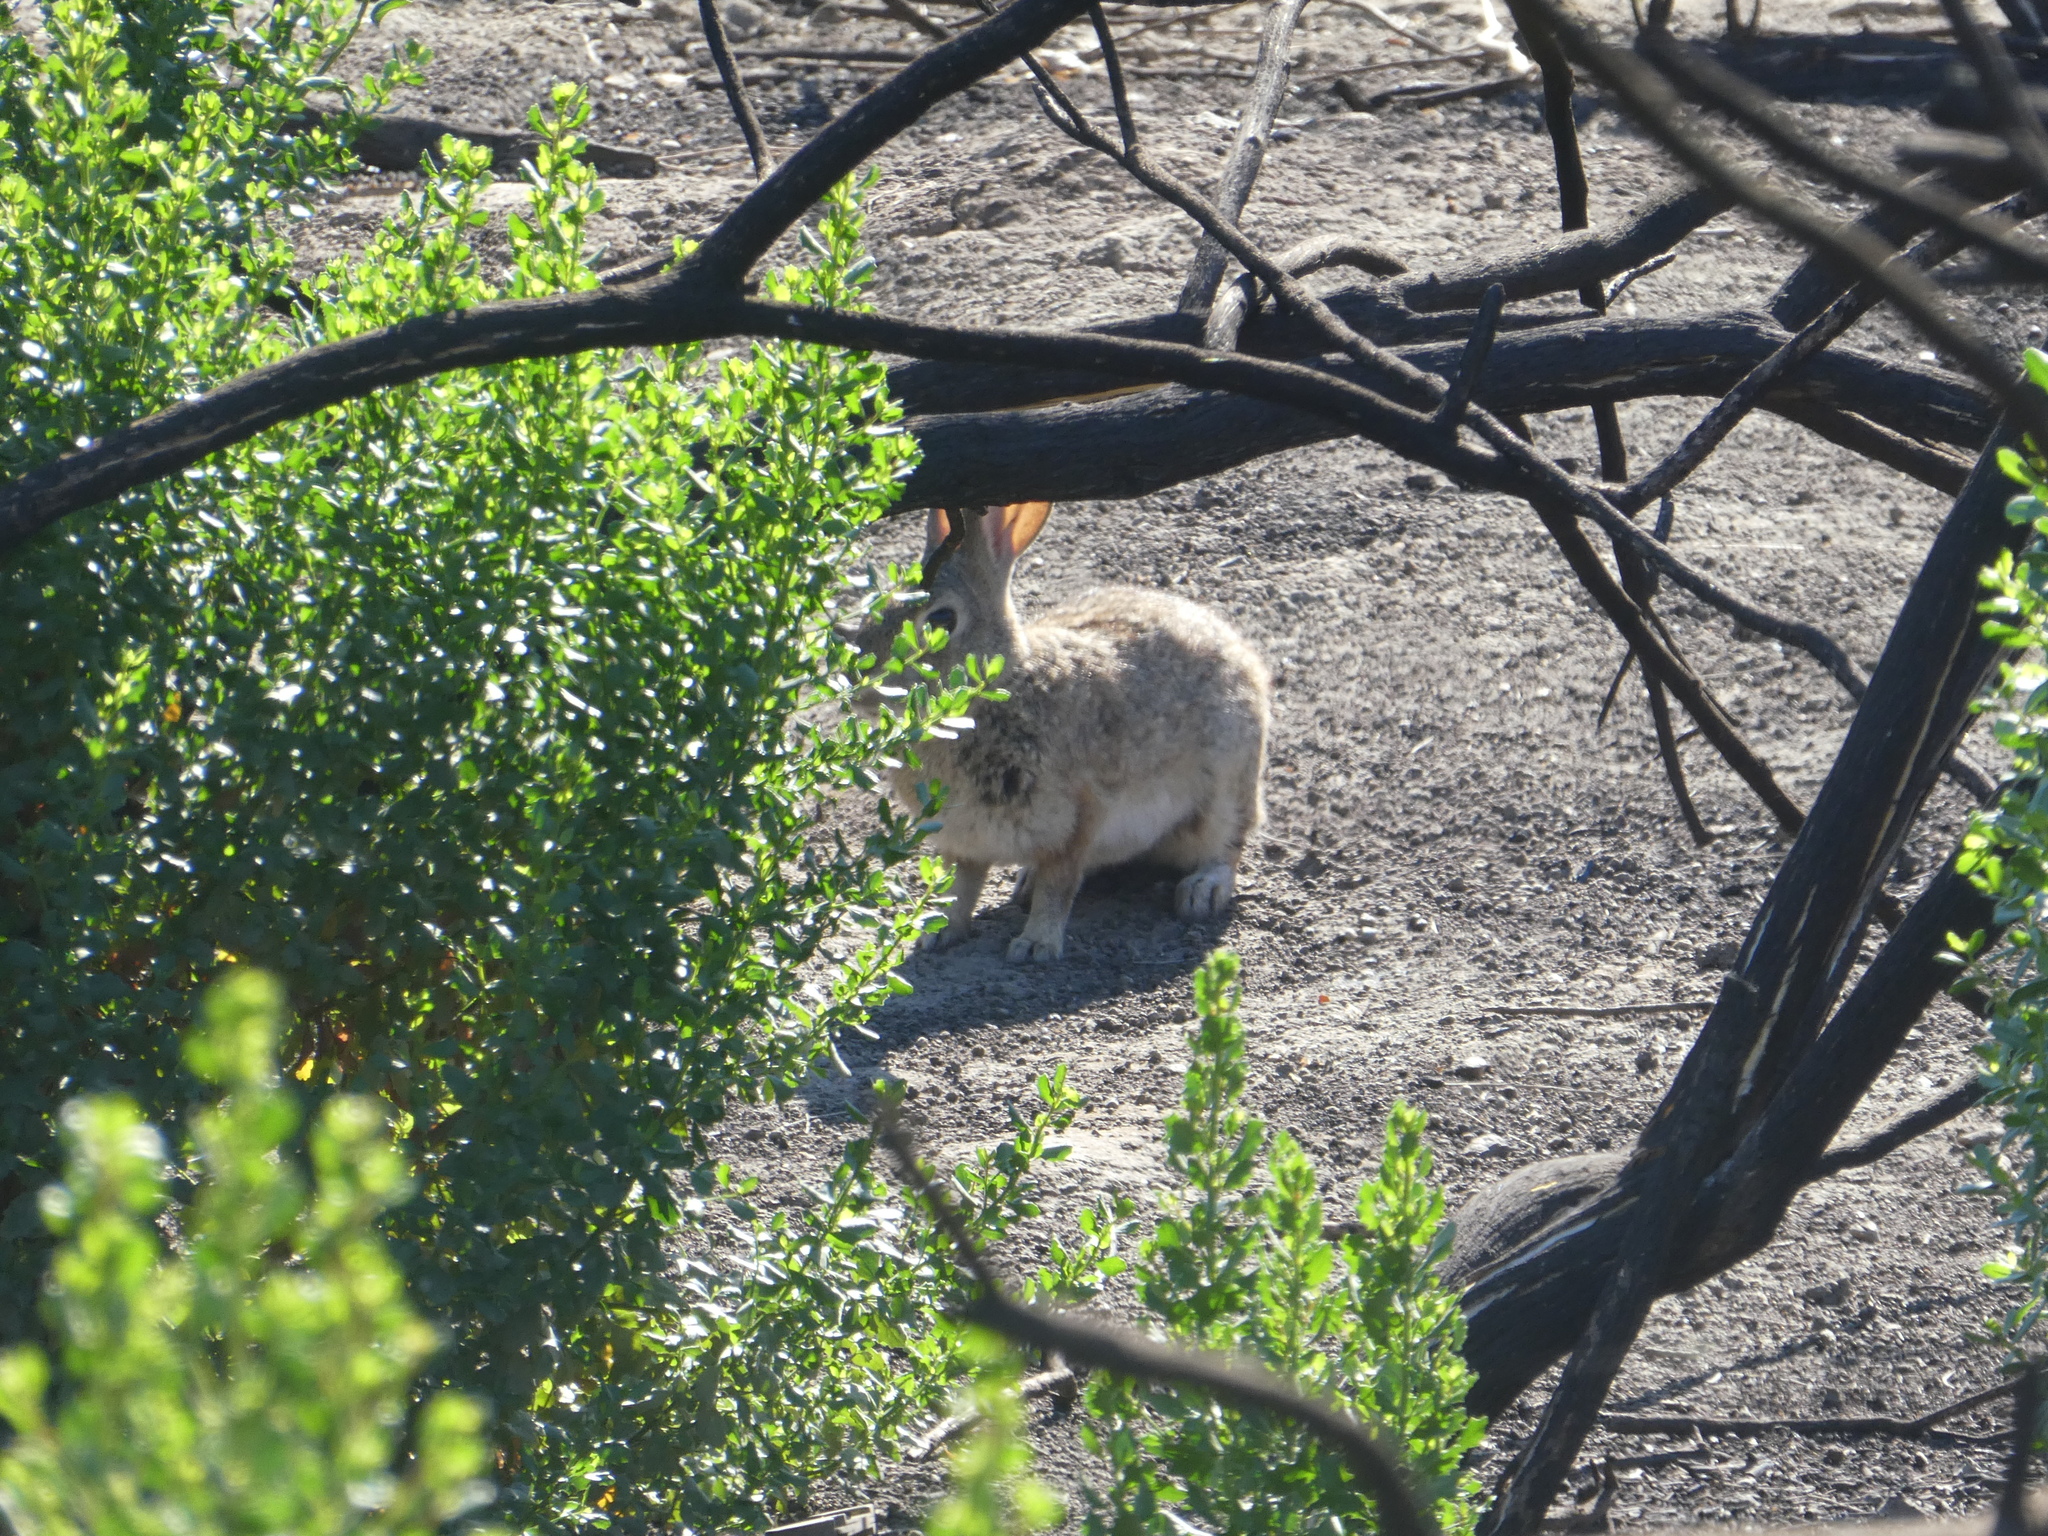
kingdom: Animalia
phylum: Chordata
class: Mammalia
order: Lagomorpha
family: Leporidae
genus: Sylvilagus
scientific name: Sylvilagus audubonii
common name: Desert cottontail
